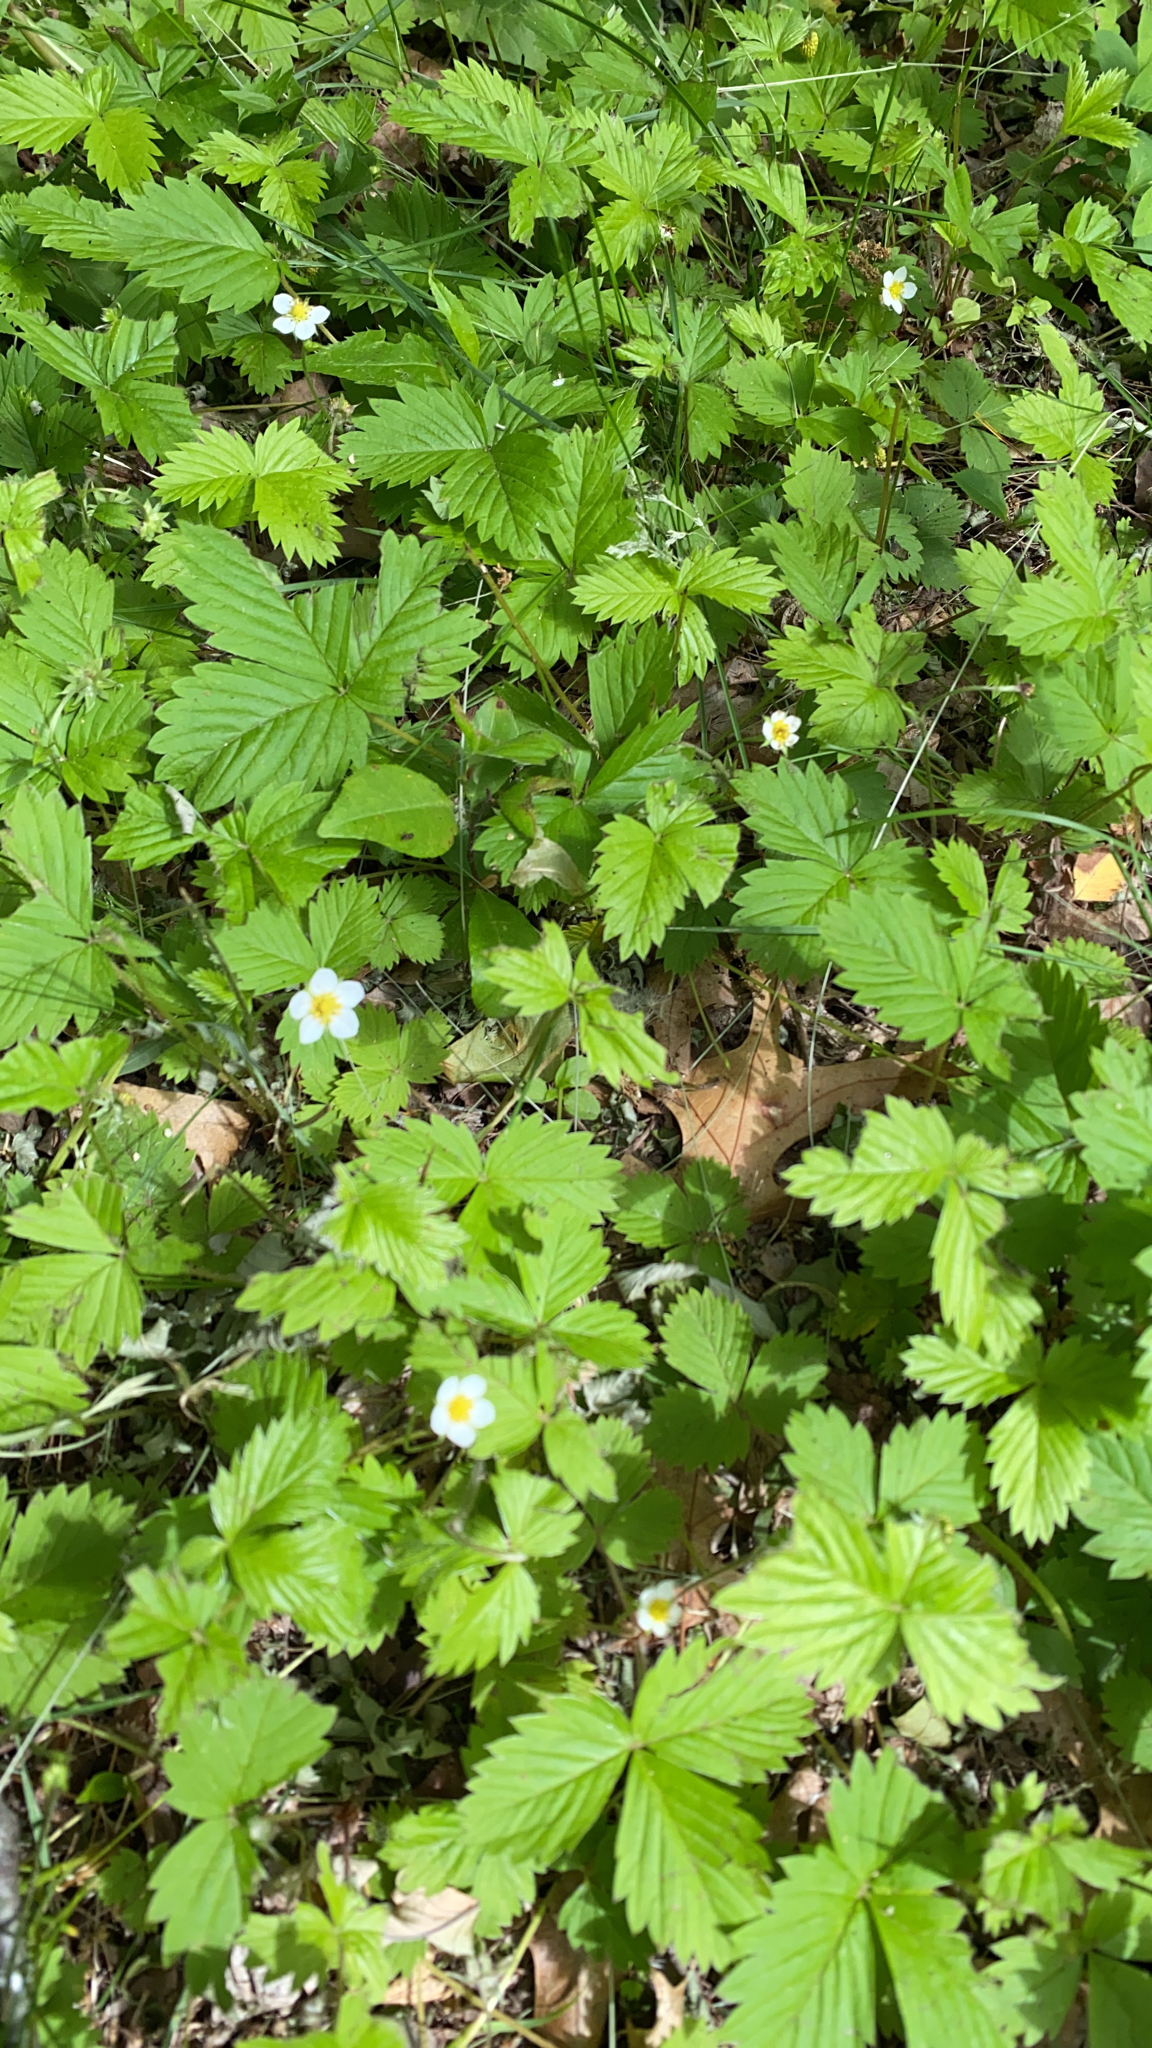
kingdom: Plantae
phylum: Tracheophyta
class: Magnoliopsida
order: Rosales
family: Rosaceae
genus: Fragaria
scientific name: Fragaria vesca
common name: Wild strawberry
